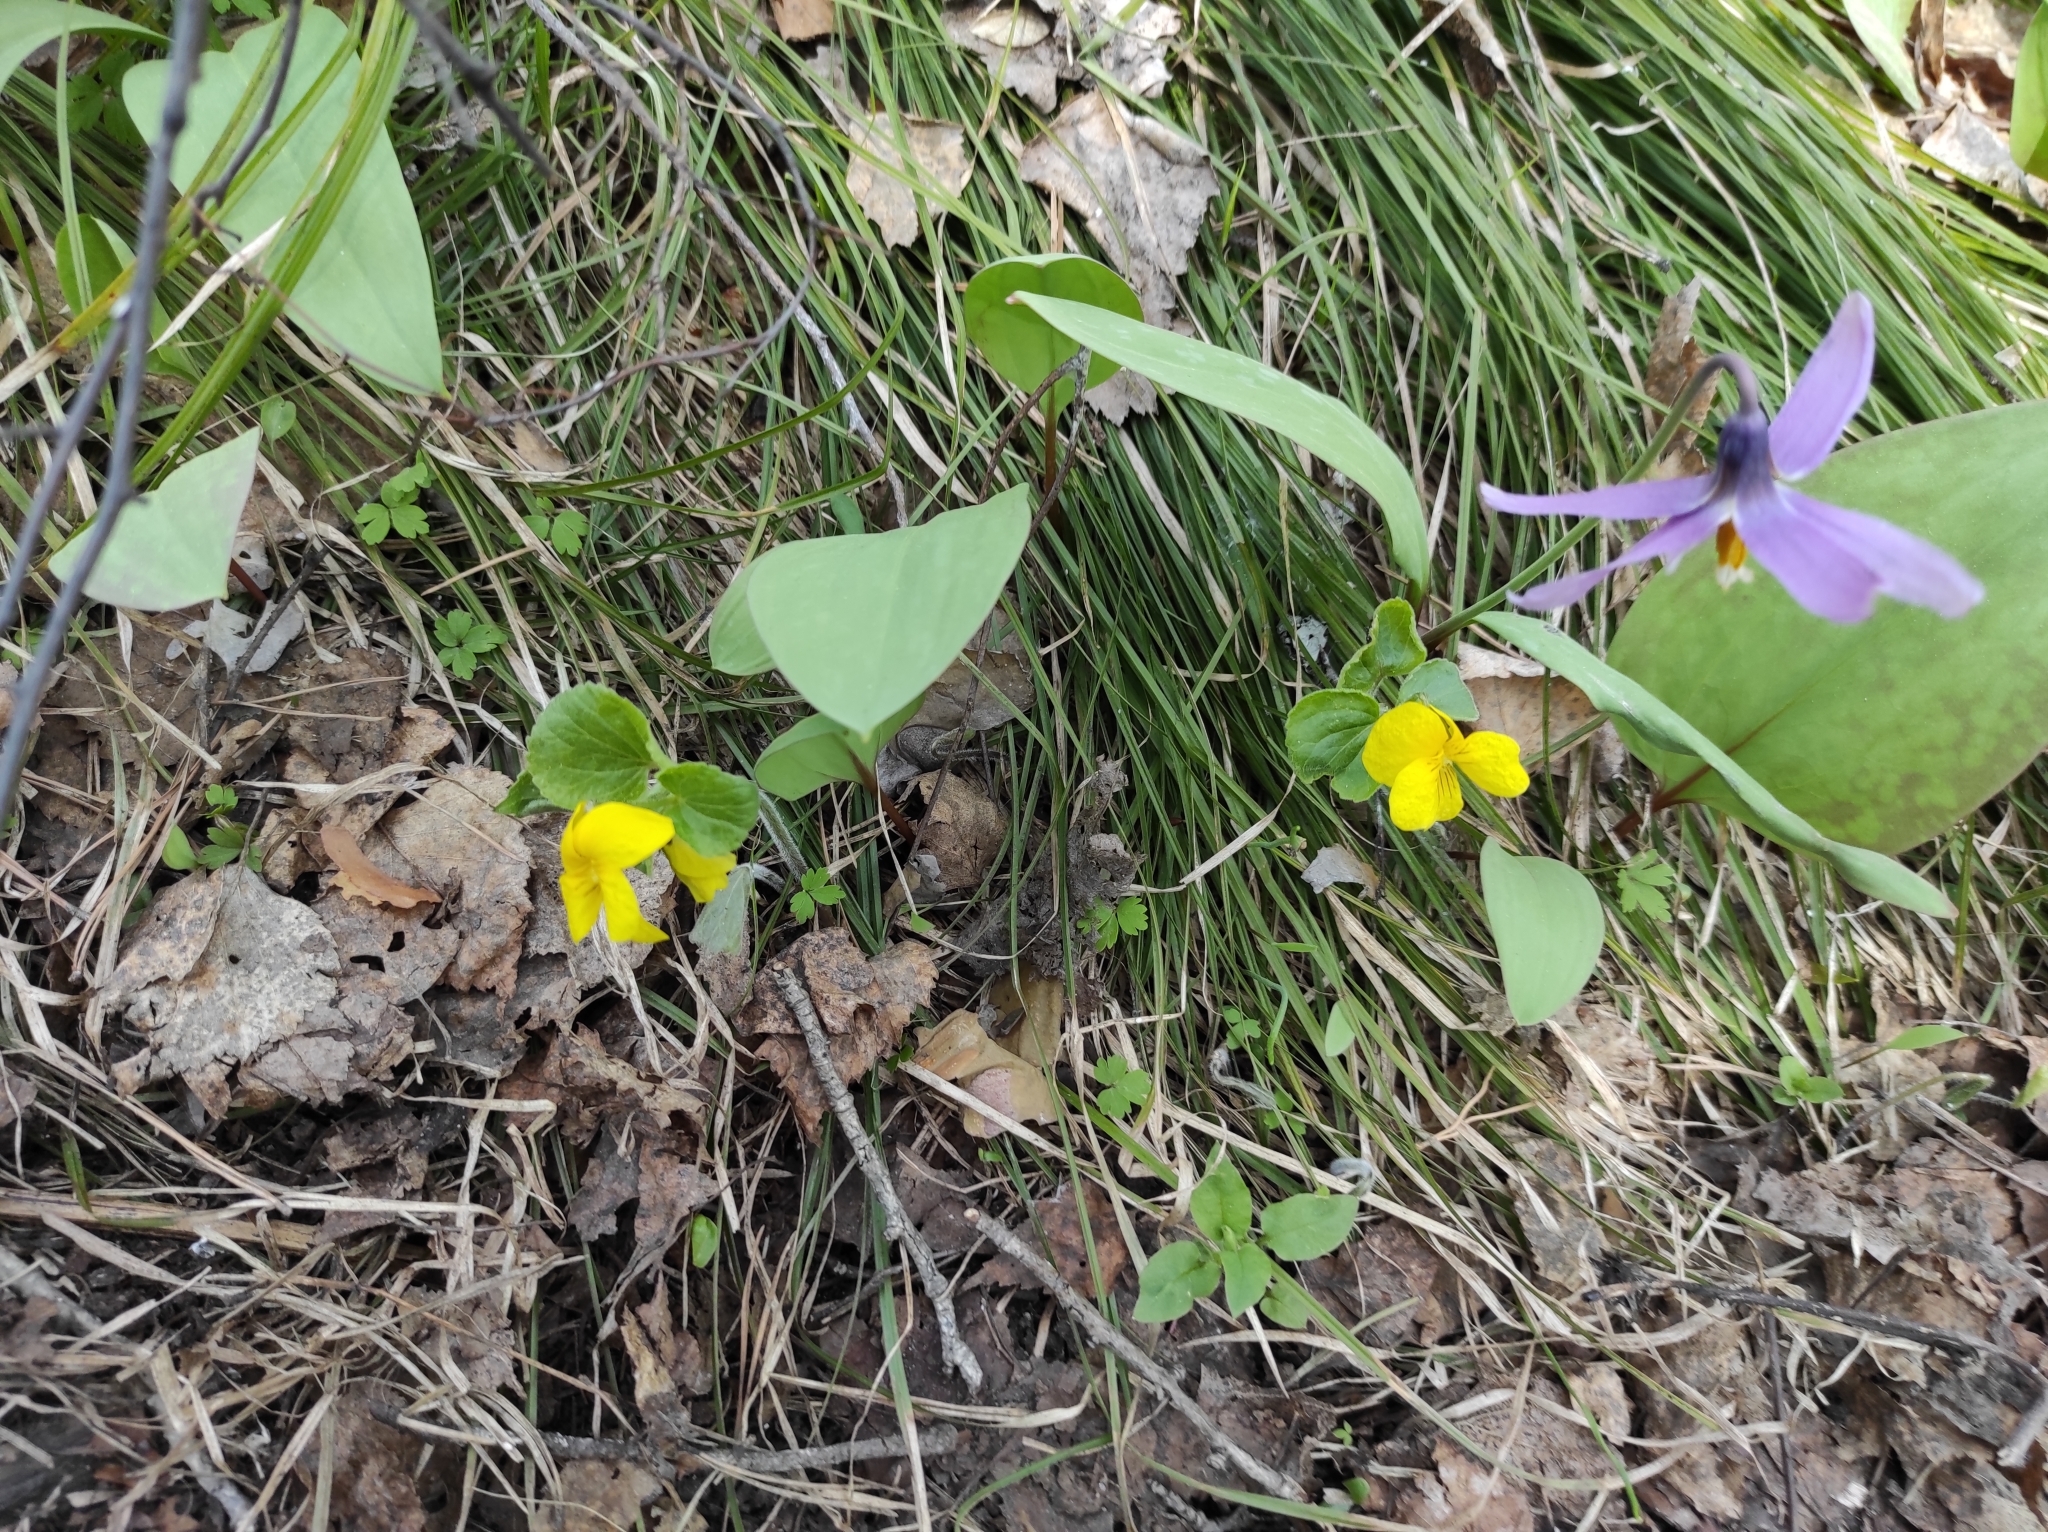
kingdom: Plantae
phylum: Tracheophyta
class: Magnoliopsida
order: Malpighiales
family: Violaceae
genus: Viola
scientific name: Viola uniflora
